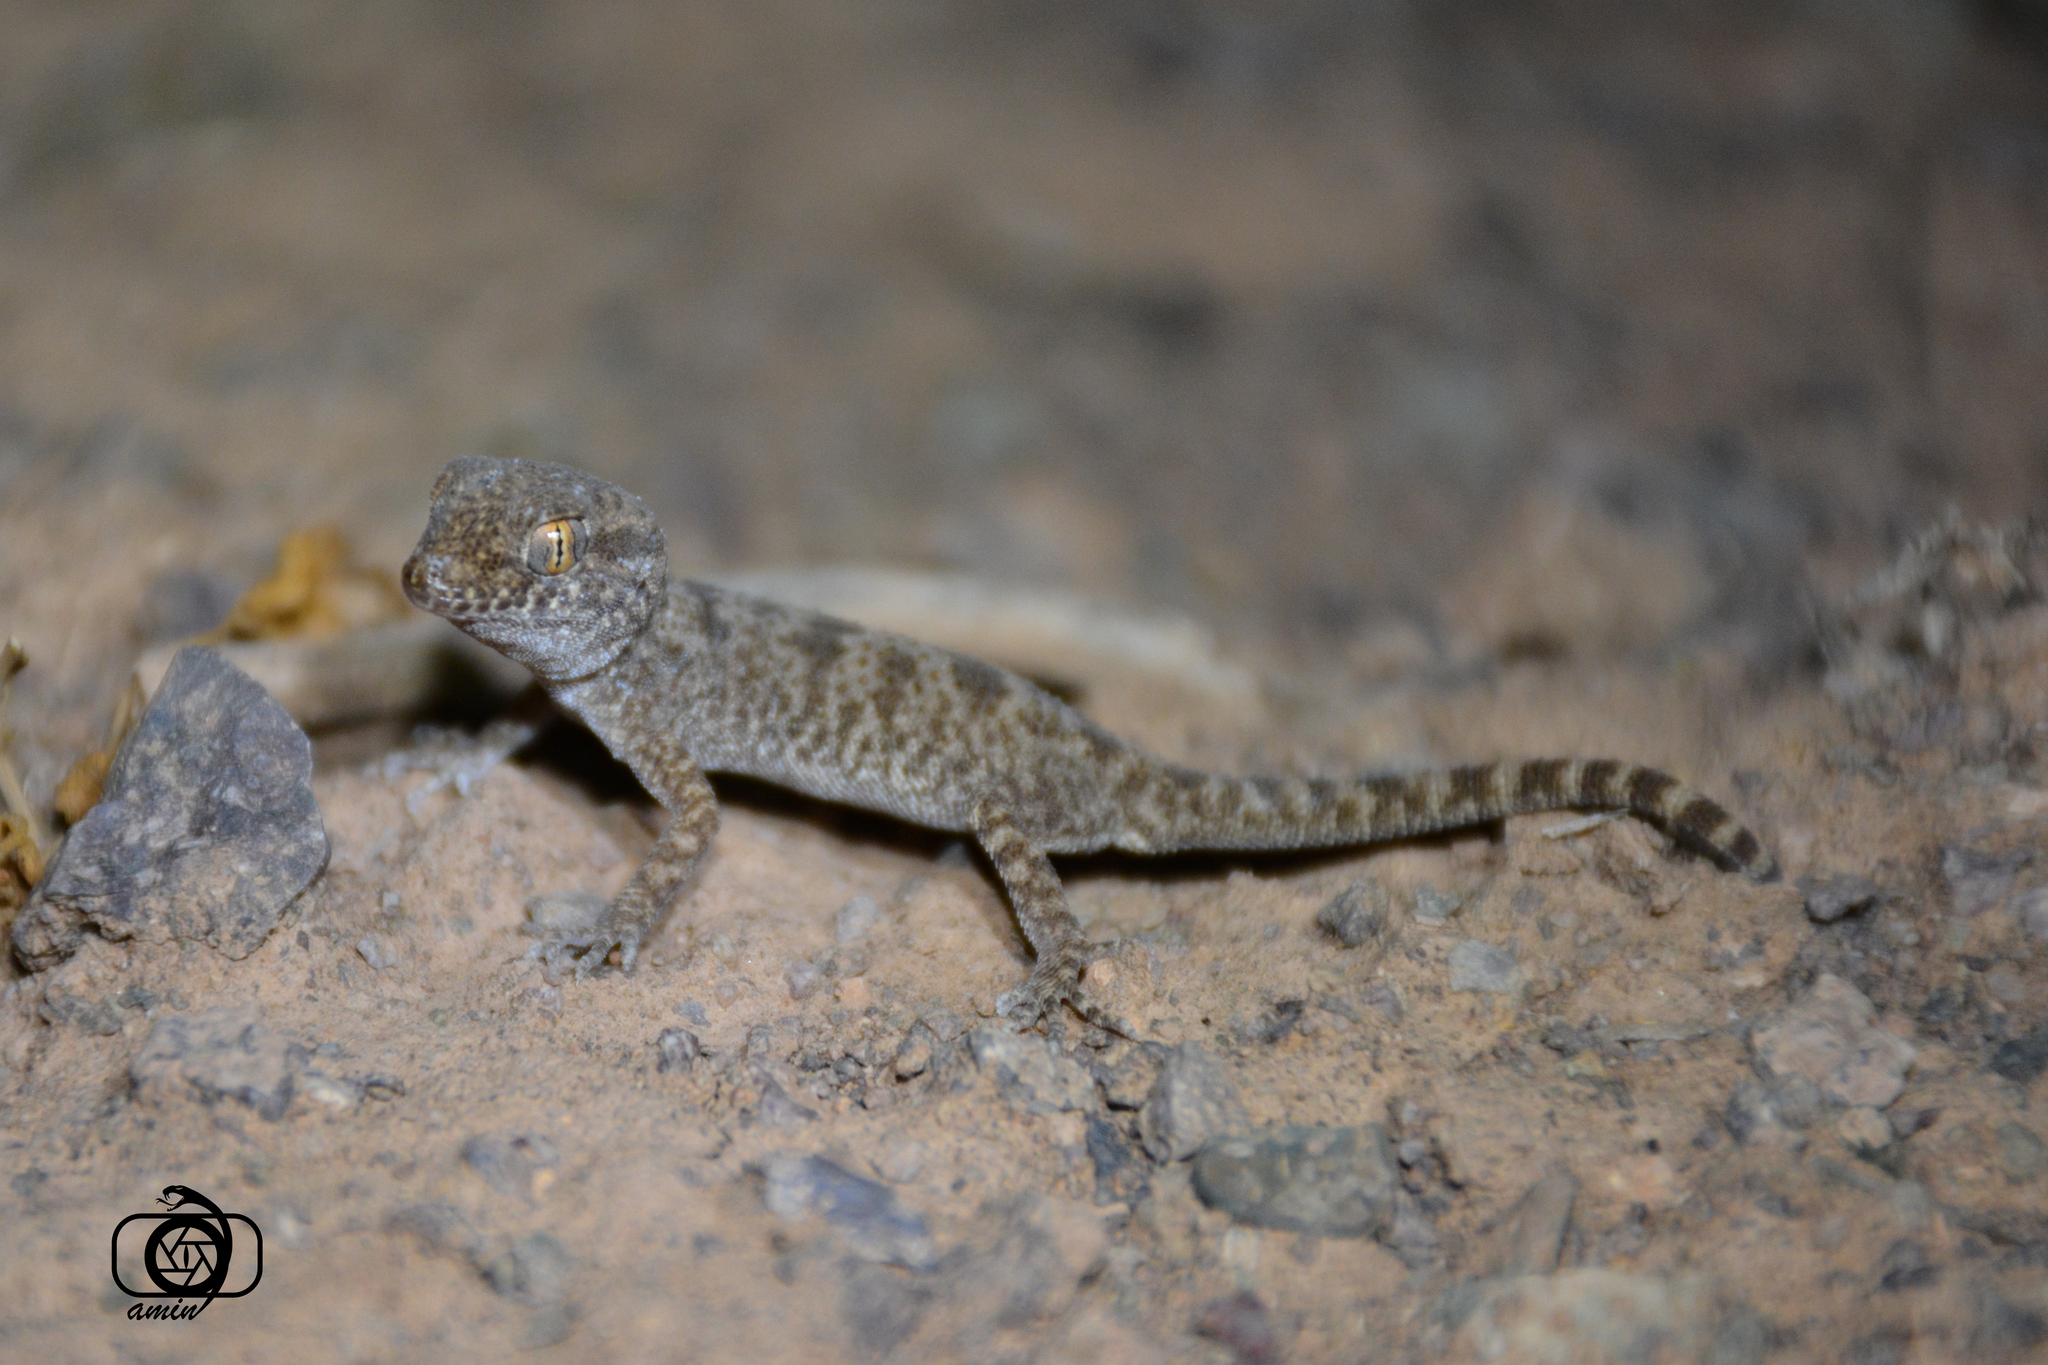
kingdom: Animalia
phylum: Chordata
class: Squamata
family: Gekkonidae
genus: Bunopus
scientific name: Bunopus crassicauda
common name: Thick-tailed tuberculated gecko
